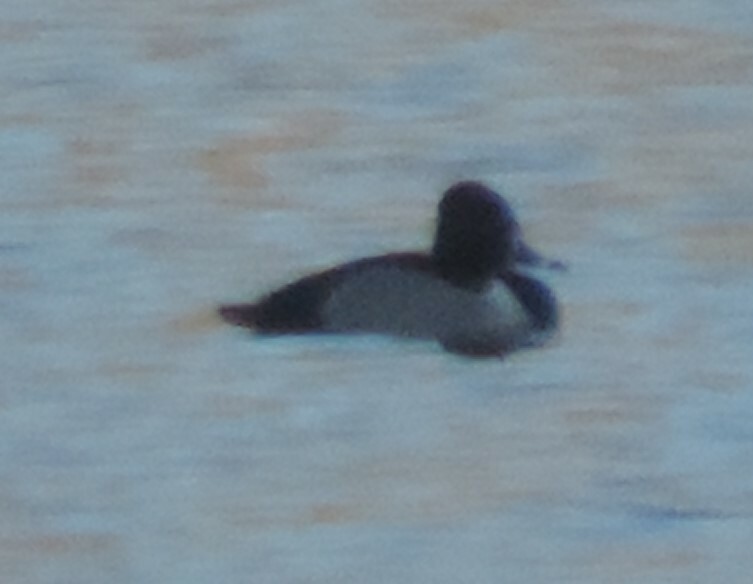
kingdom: Animalia
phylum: Chordata
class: Aves
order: Anseriformes
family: Anatidae
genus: Aythya
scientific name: Aythya collaris
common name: Ring-necked duck
